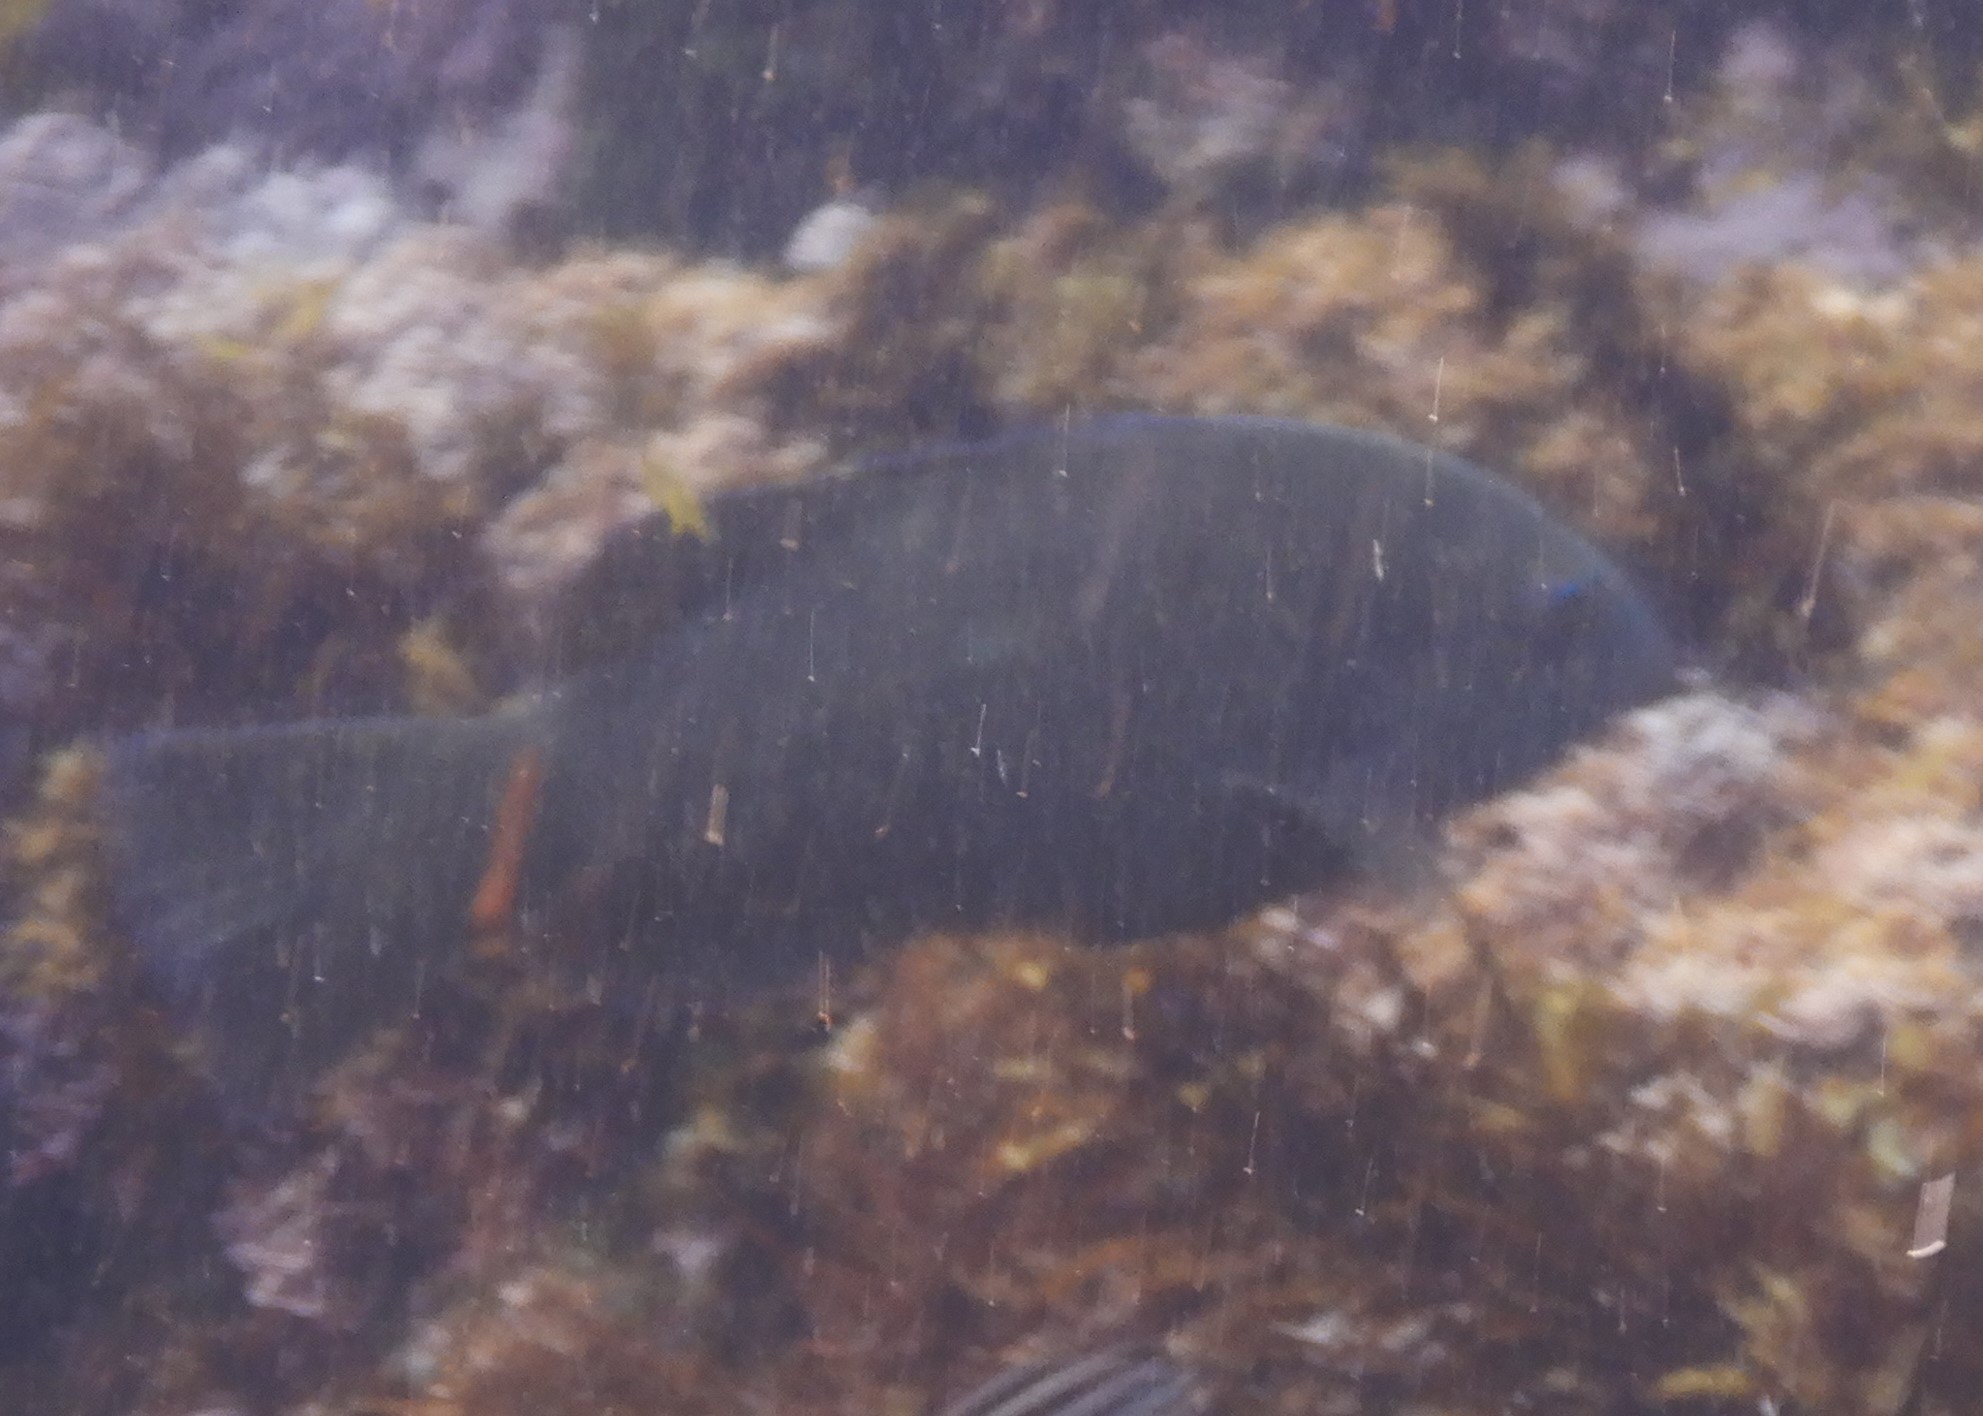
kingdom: Animalia
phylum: Chordata
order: Perciformes
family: Labridae
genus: Achoerodus
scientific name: Achoerodus viridis
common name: Brown groper
